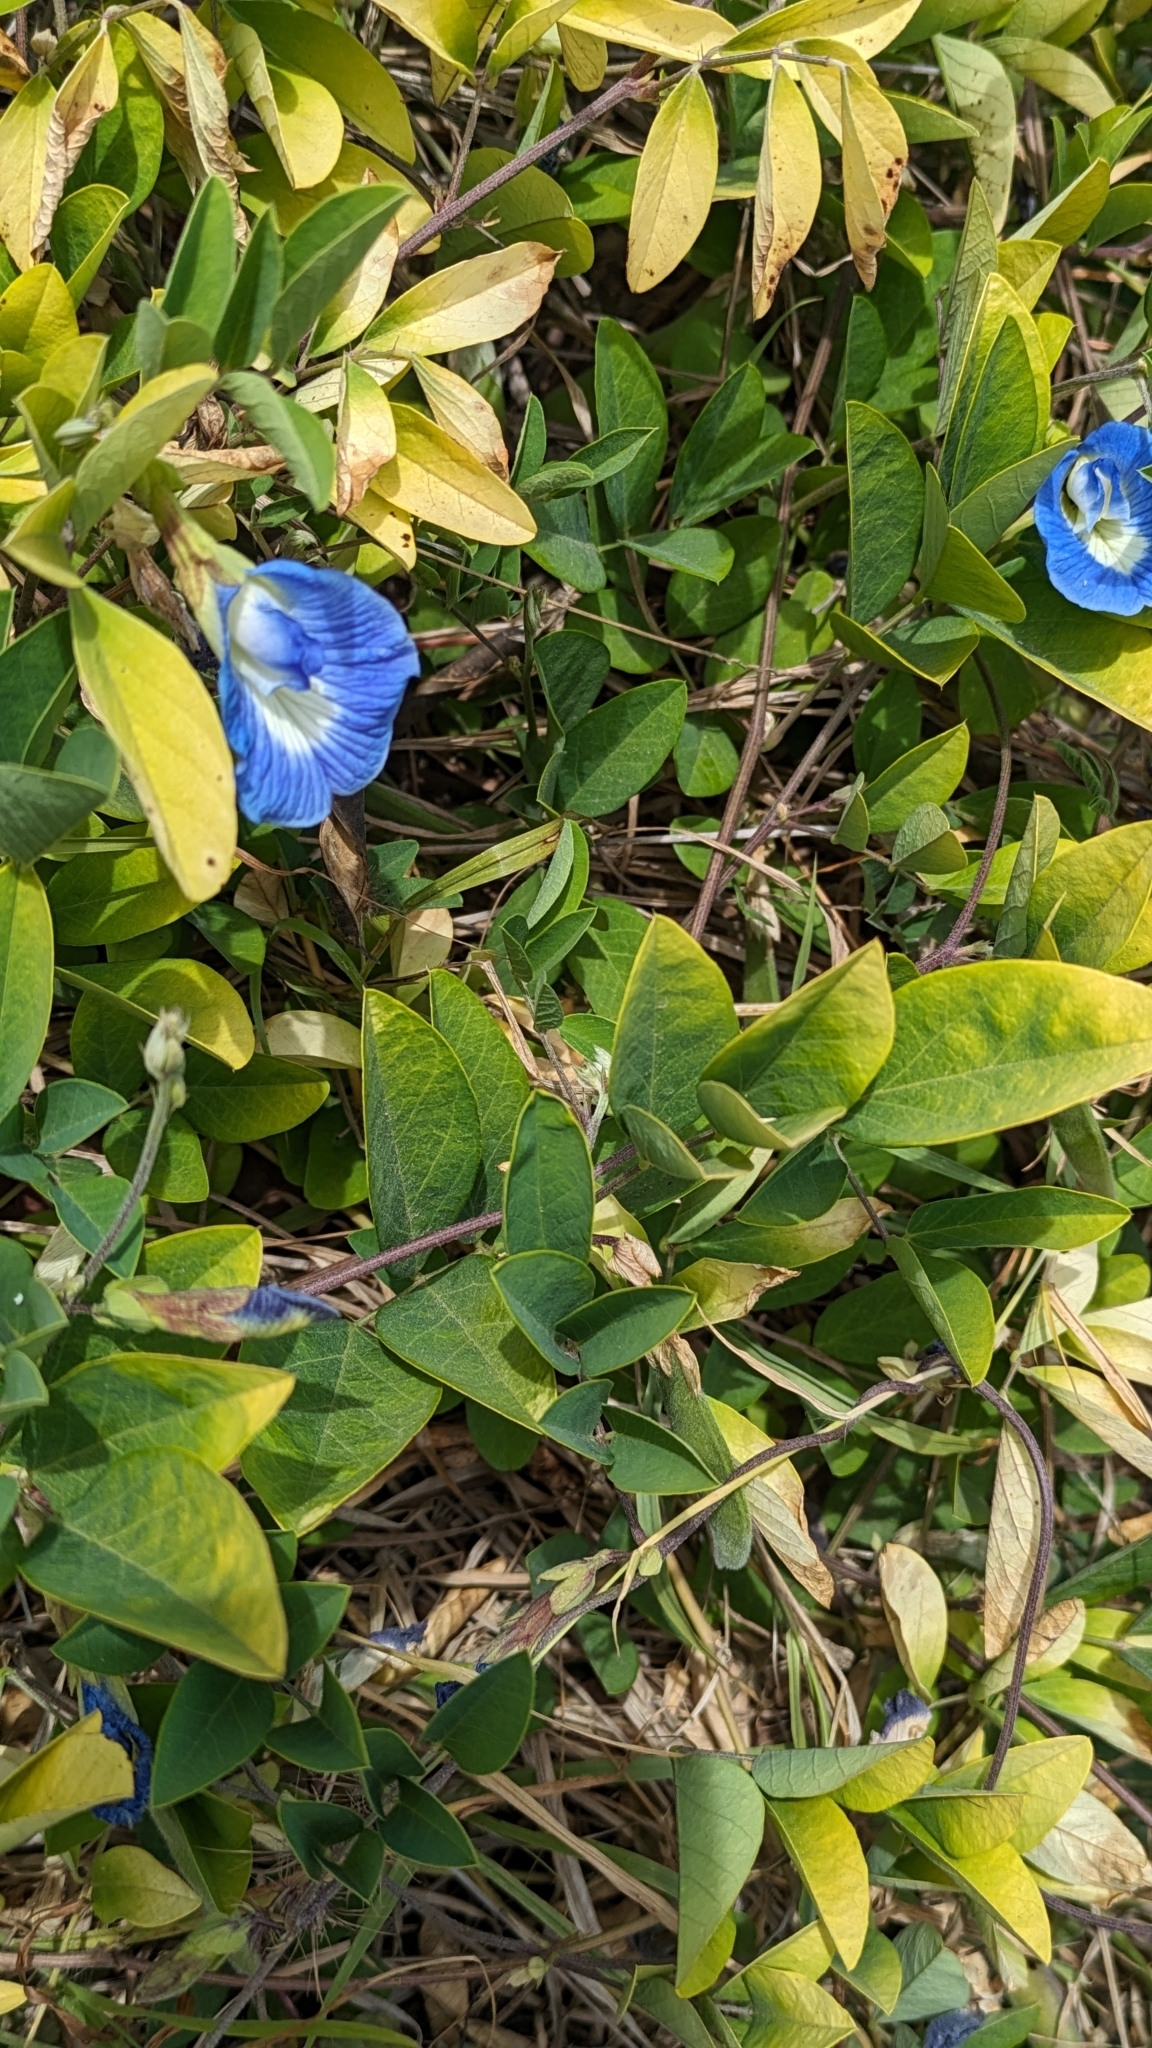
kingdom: Plantae
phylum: Tracheophyta
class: Magnoliopsida
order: Fabales
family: Fabaceae
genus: Clitoria
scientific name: Clitoria ternatea
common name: Asian pigeonwings
